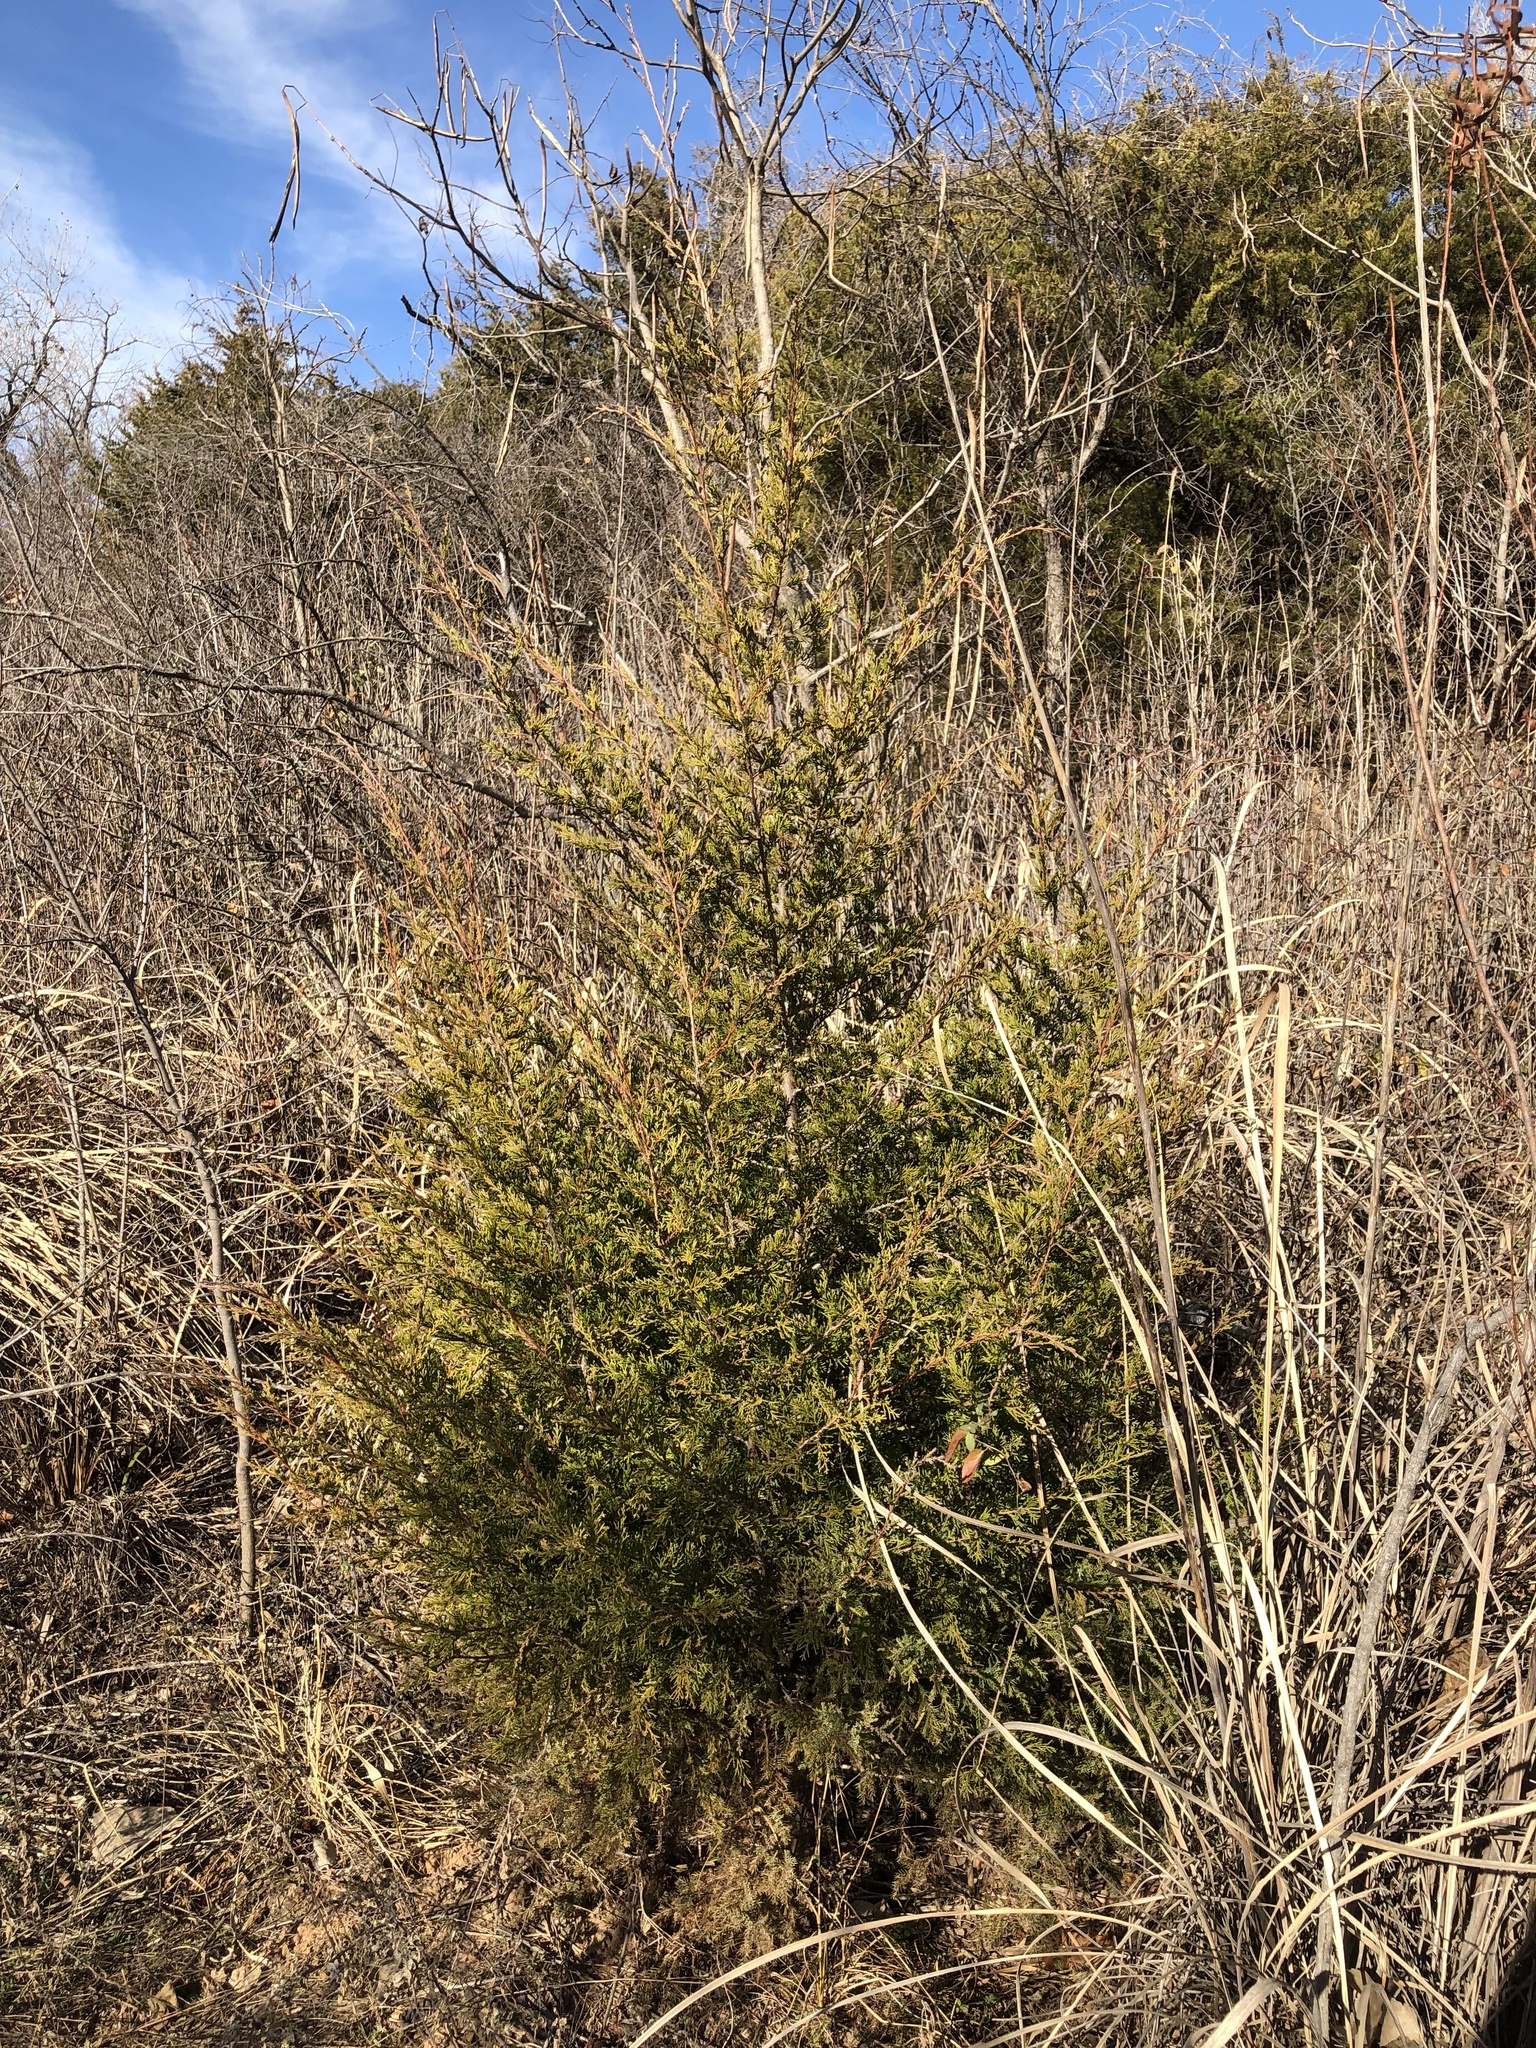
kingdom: Plantae
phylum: Tracheophyta
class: Pinopsida
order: Pinales
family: Cupressaceae
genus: Juniperus
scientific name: Juniperus virginiana
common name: Red juniper
